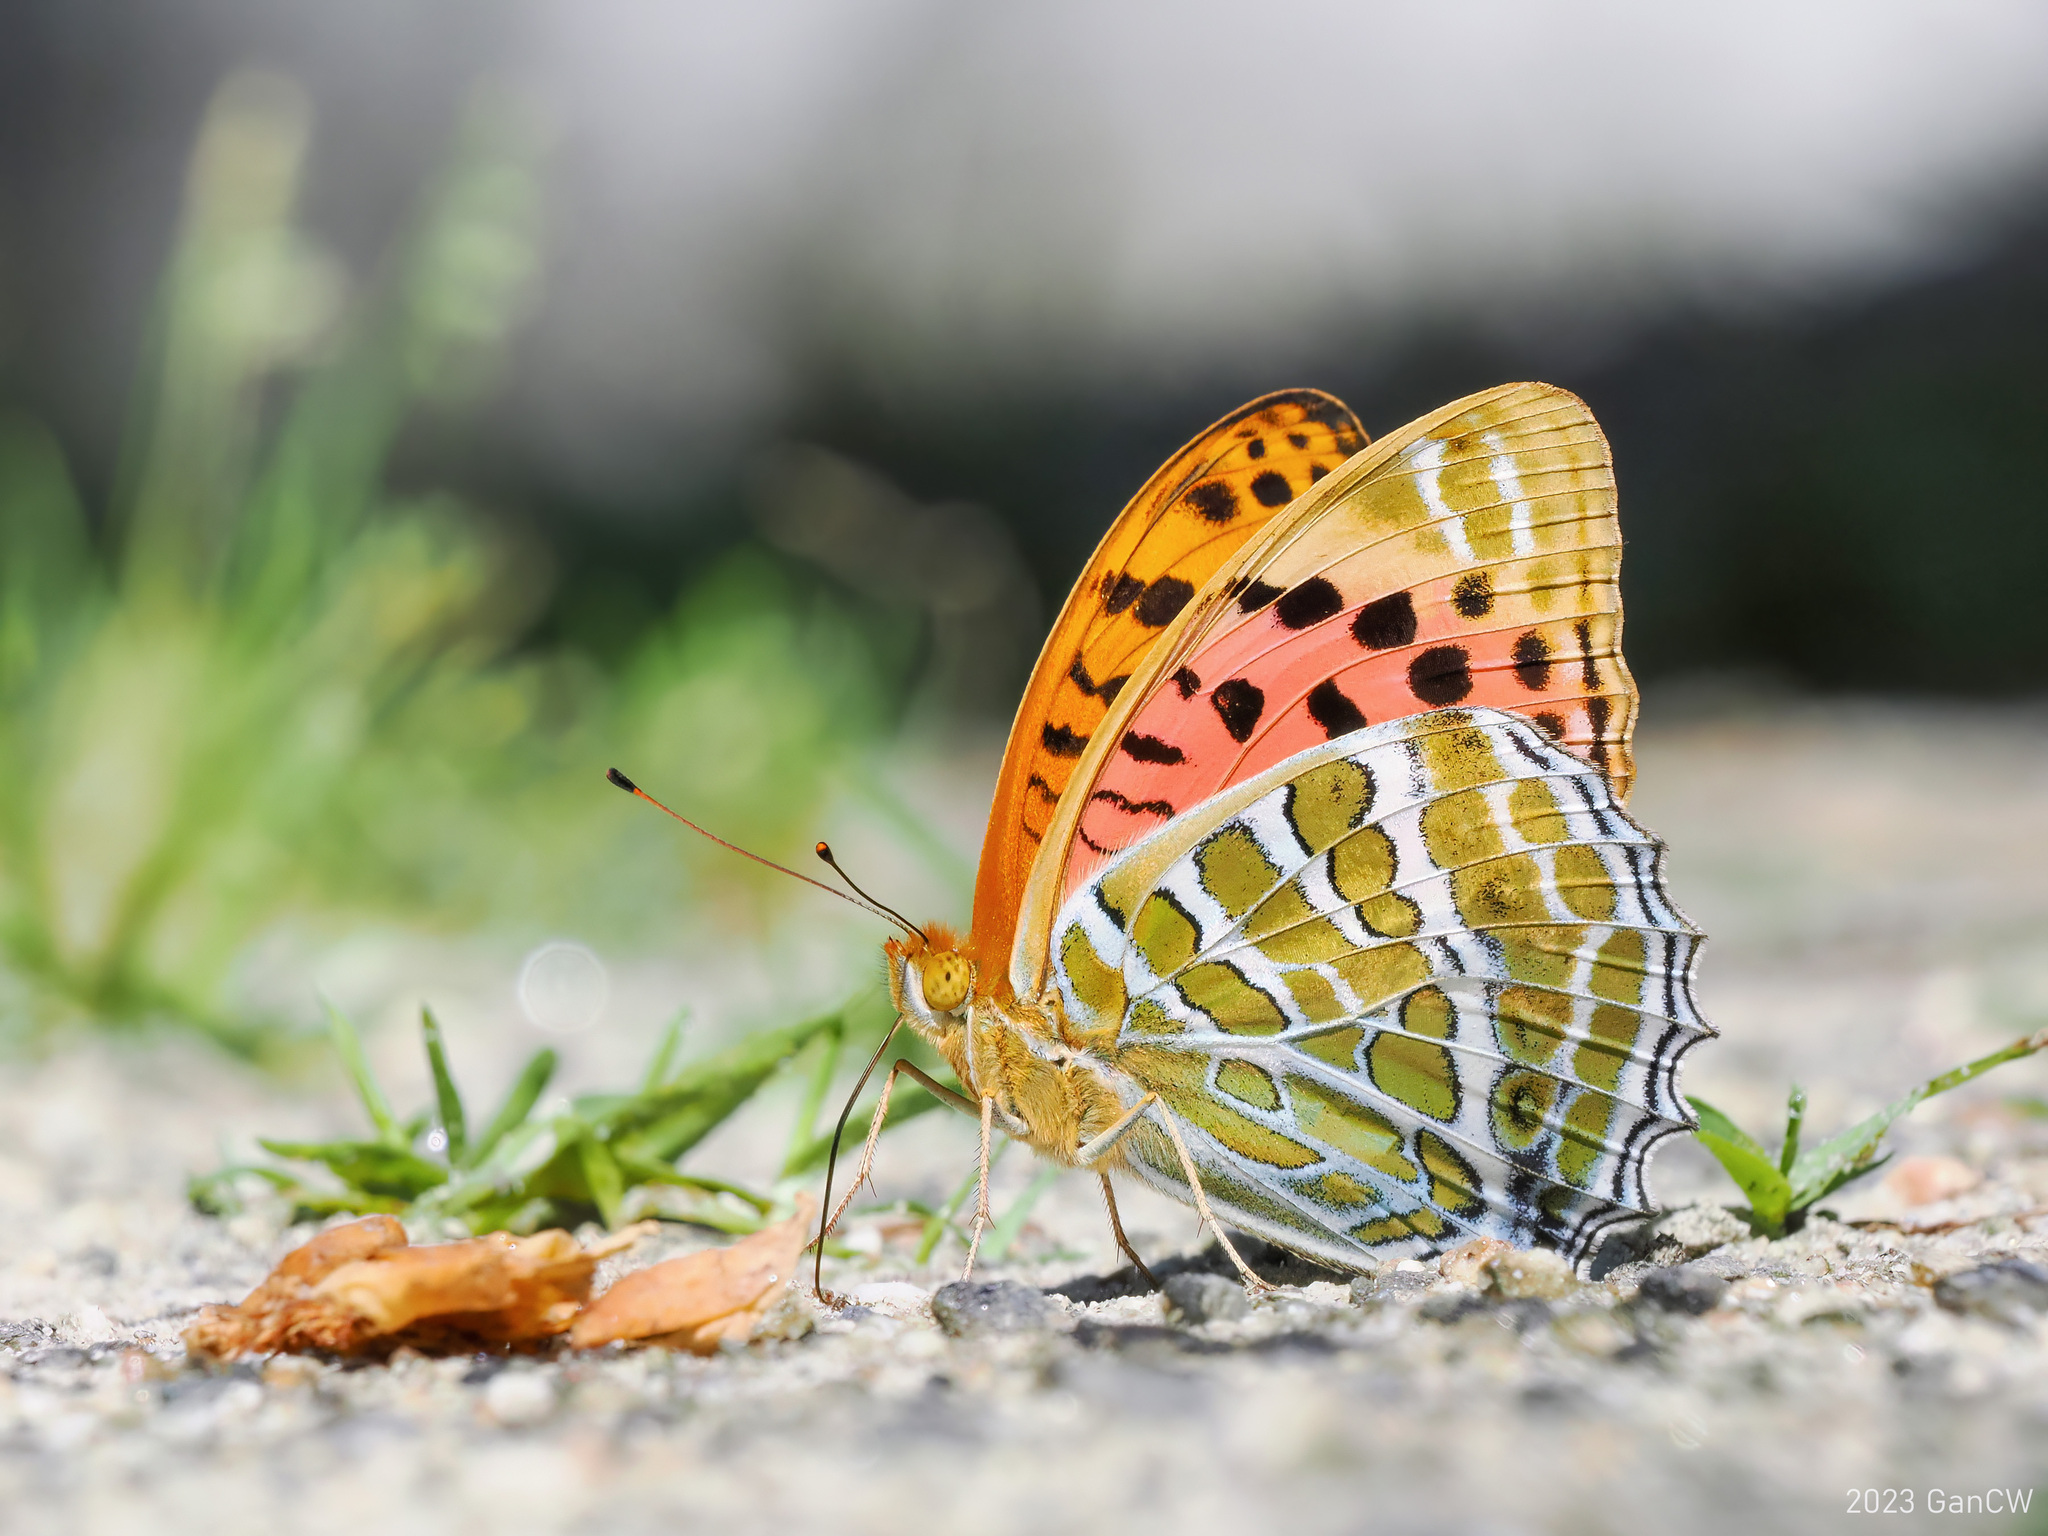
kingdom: Animalia
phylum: Arthropoda
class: Insecta
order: Lepidoptera
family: Nymphalidae
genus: Childrena
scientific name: Childrena childreni
